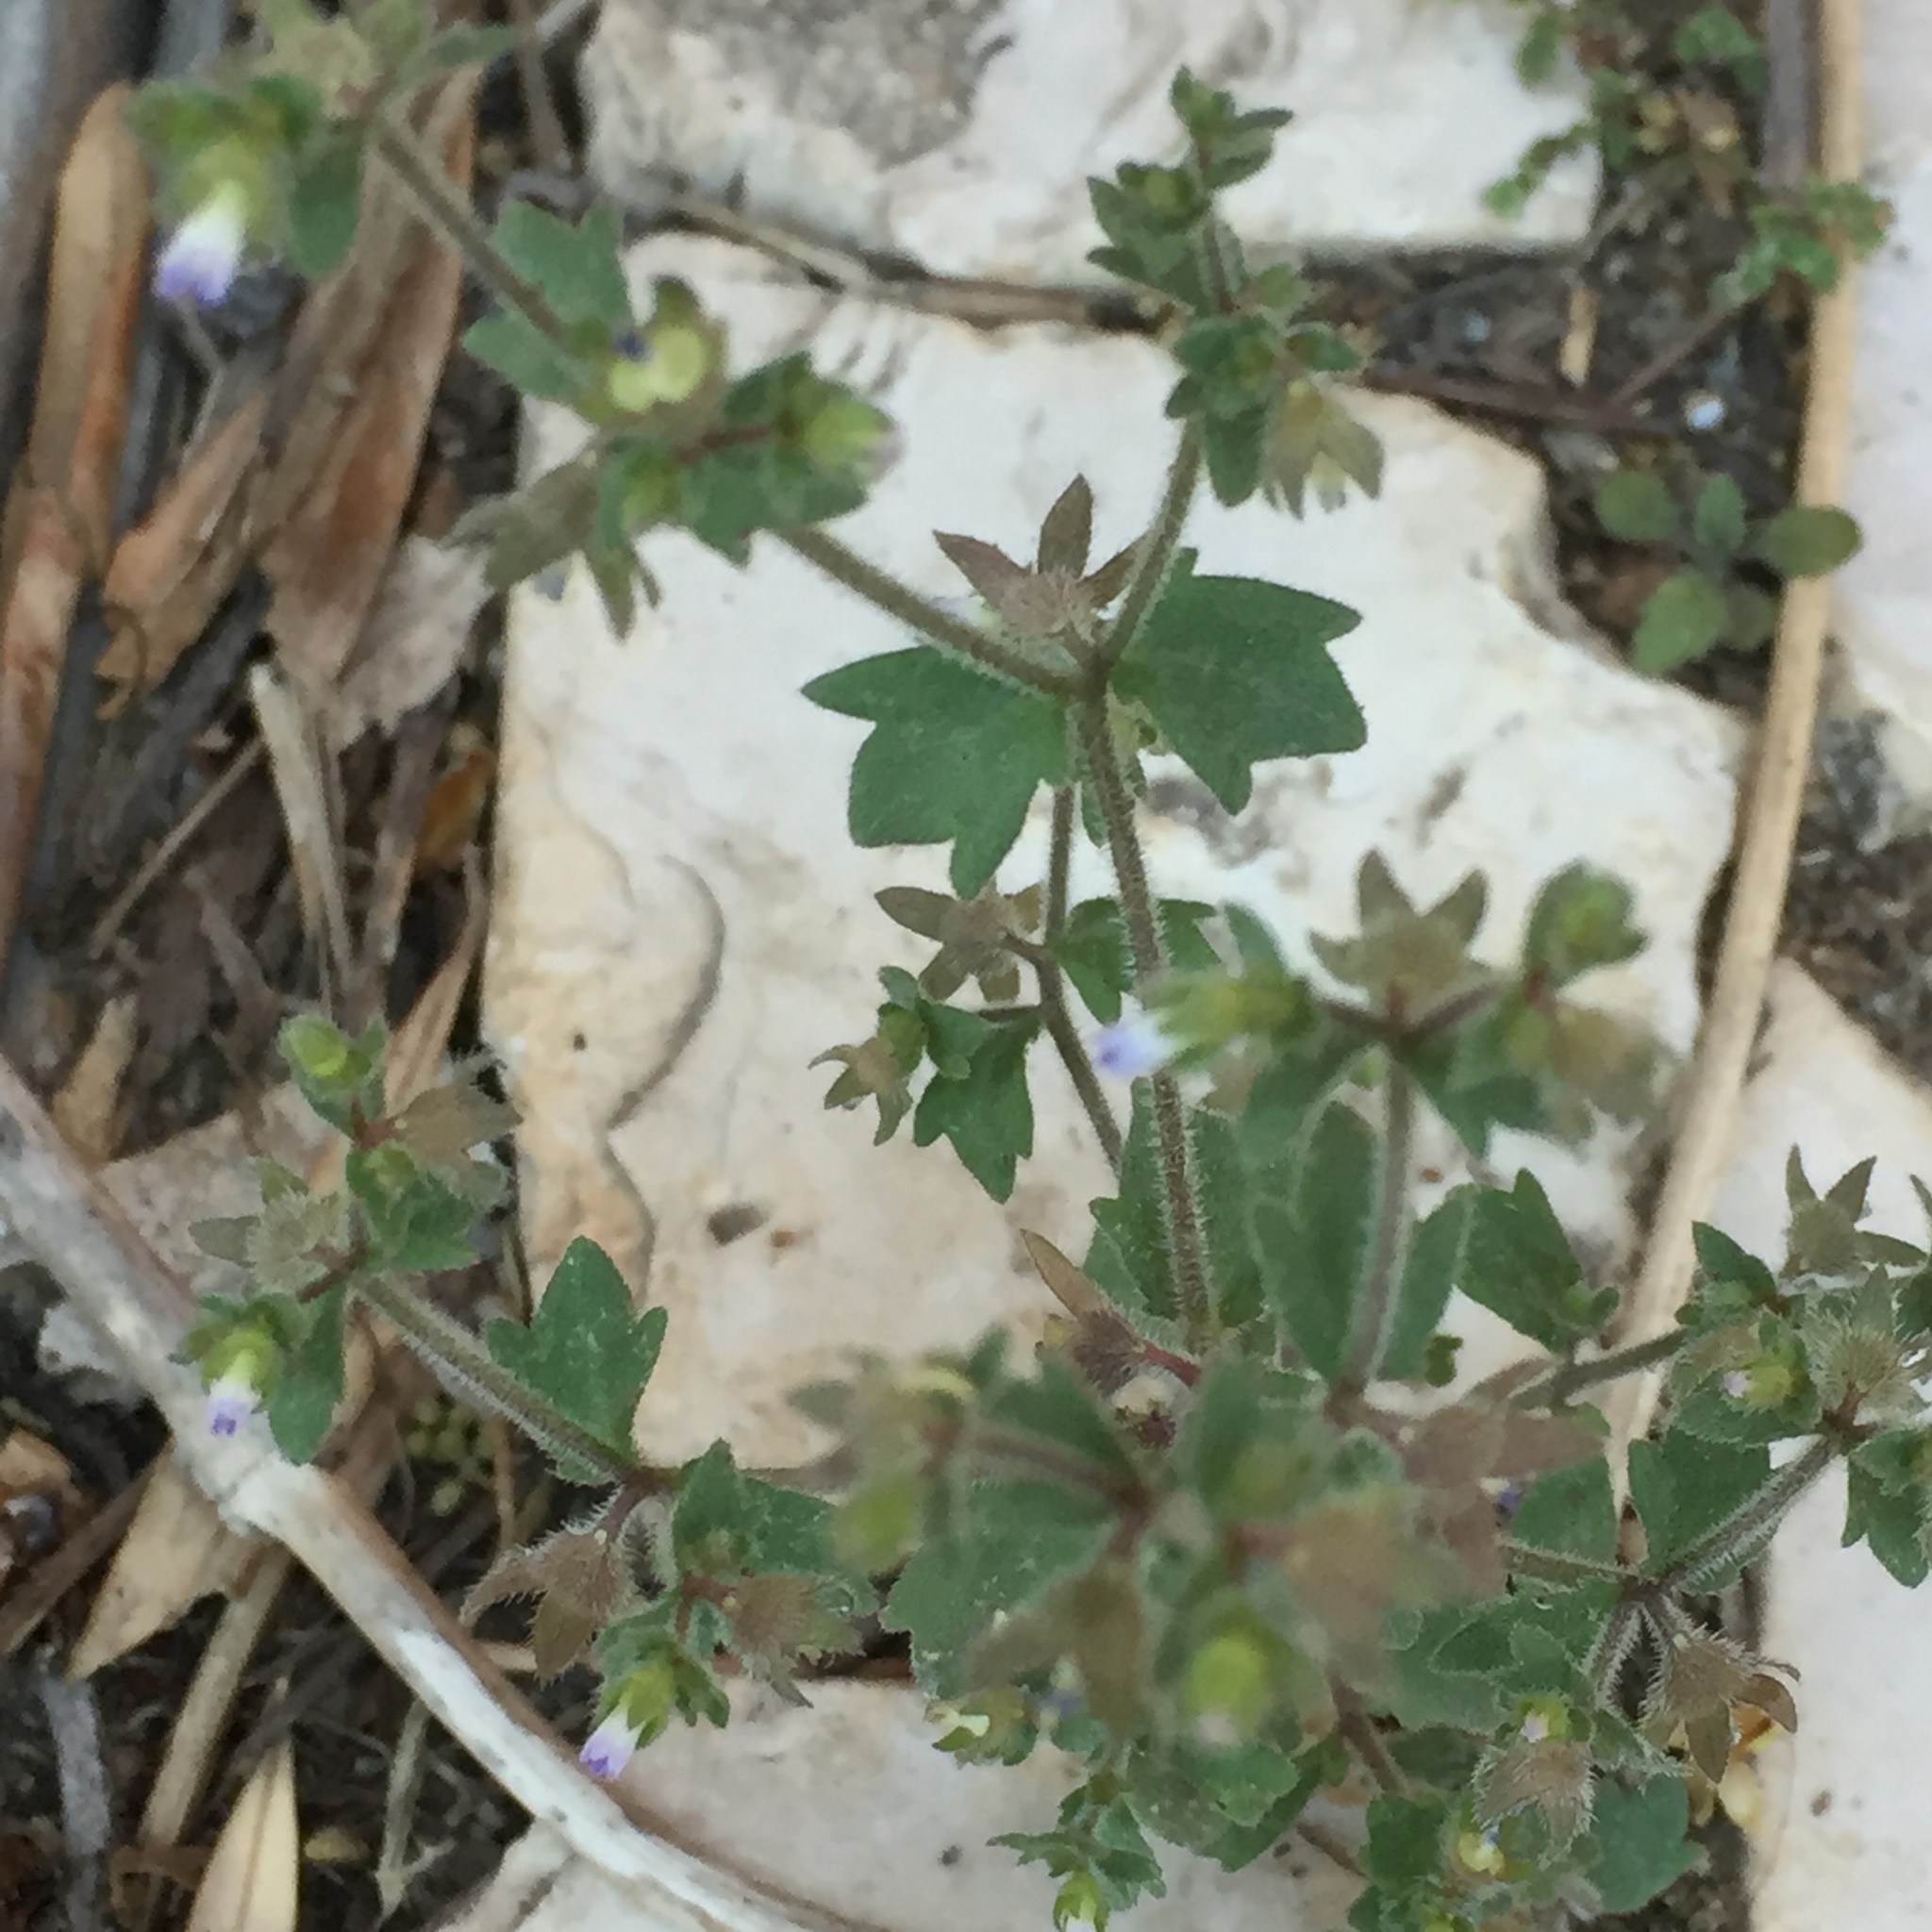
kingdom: Plantae
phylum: Tracheophyta
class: Magnoliopsida
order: Asterales
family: Campanulaceae
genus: Campanula
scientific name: Campanula erinus
